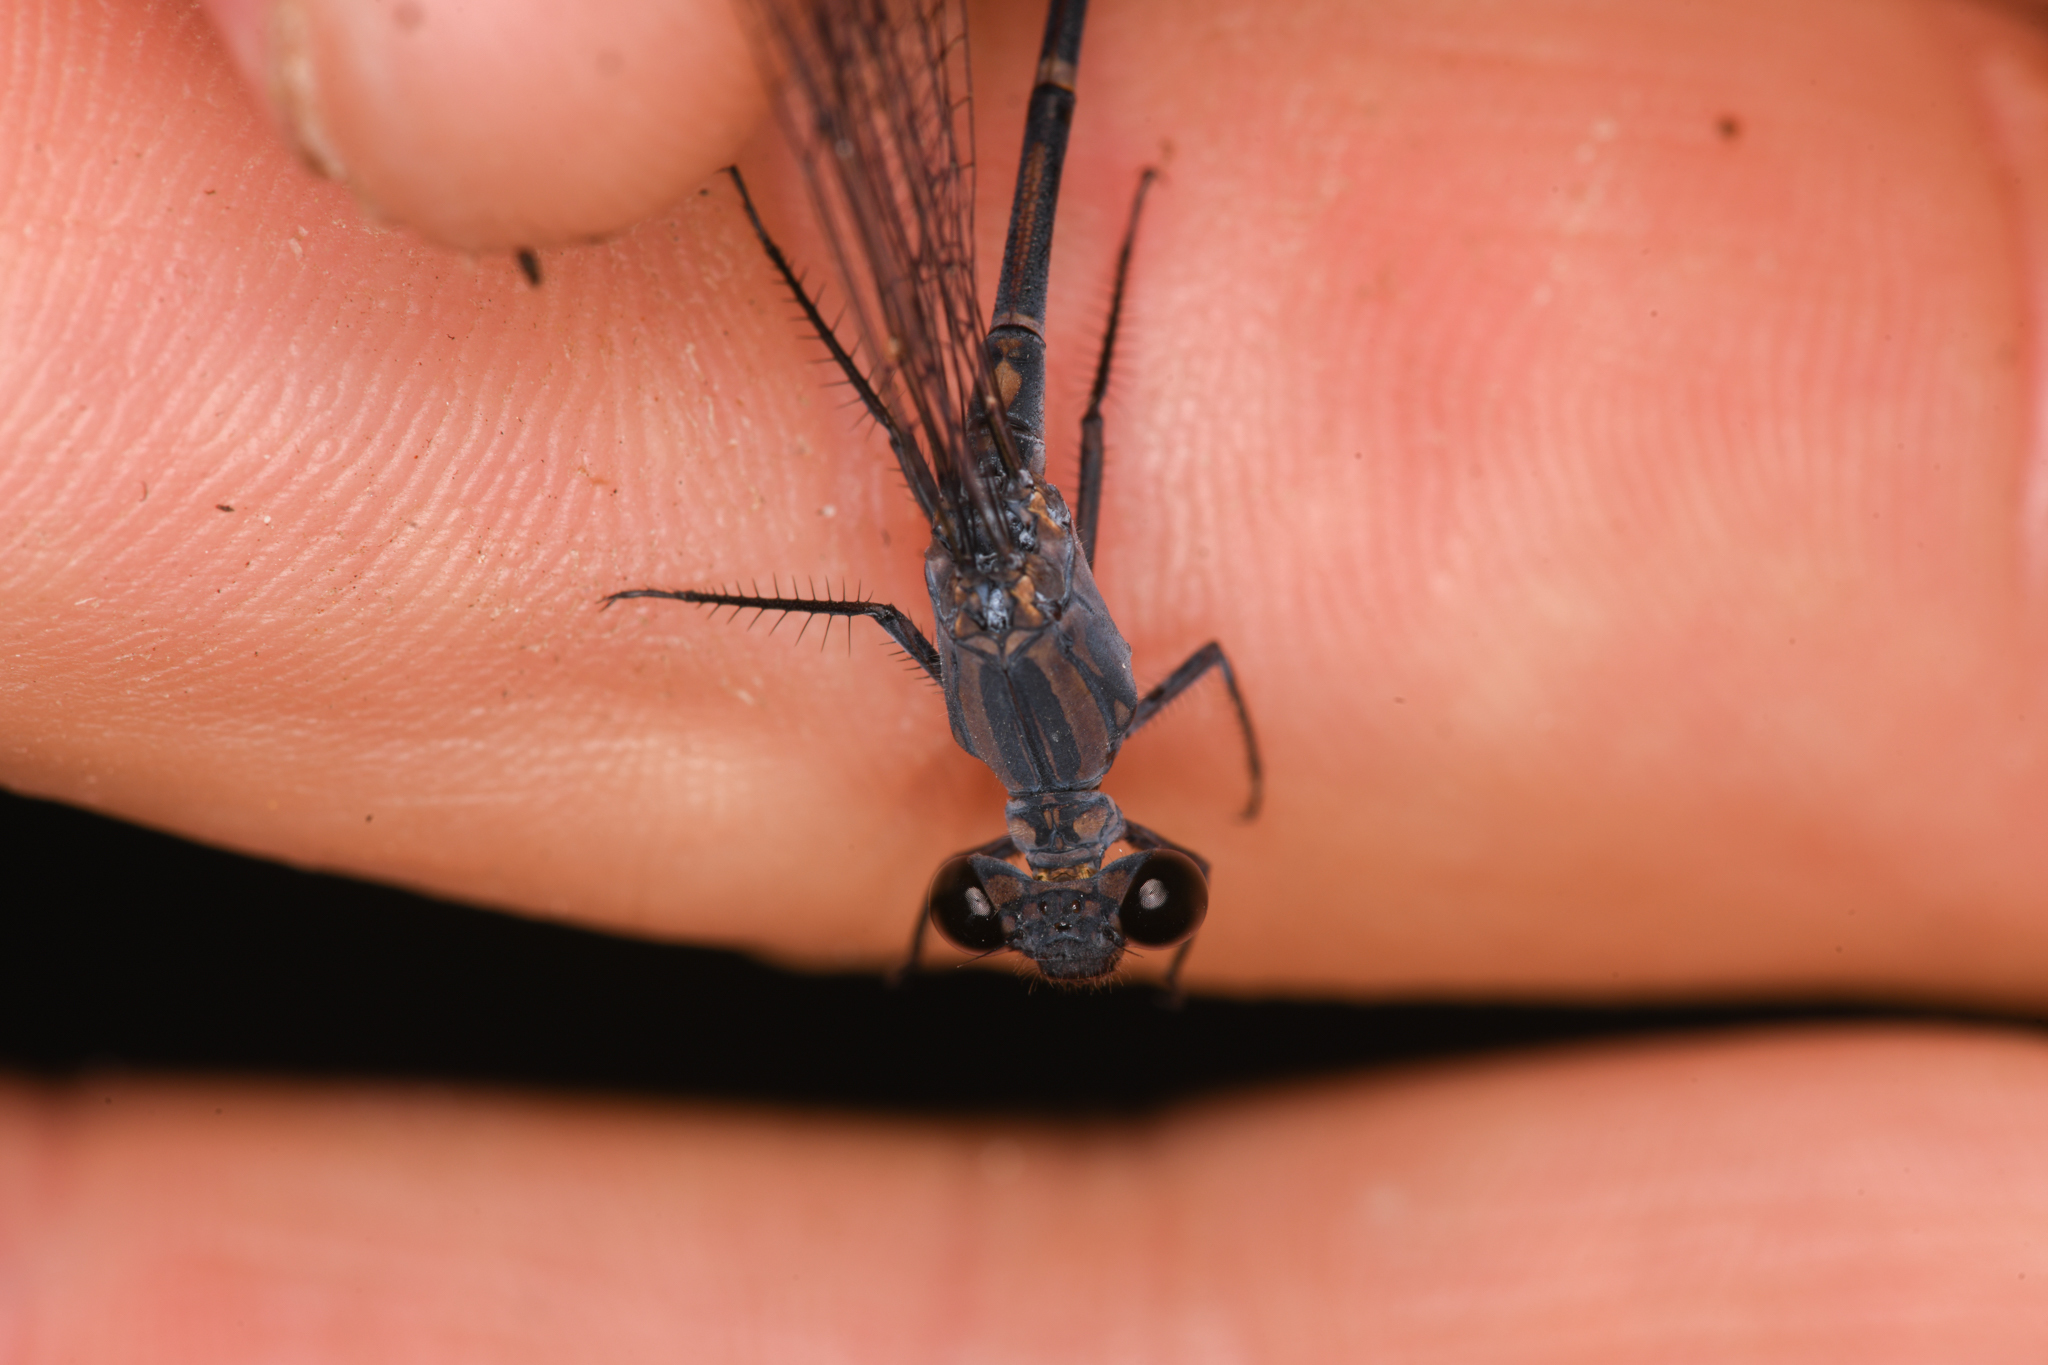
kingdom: Animalia
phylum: Arthropoda
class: Insecta
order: Odonata
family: Coenagrionidae
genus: Argia
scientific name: Argia lugens
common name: Sooty dancer
